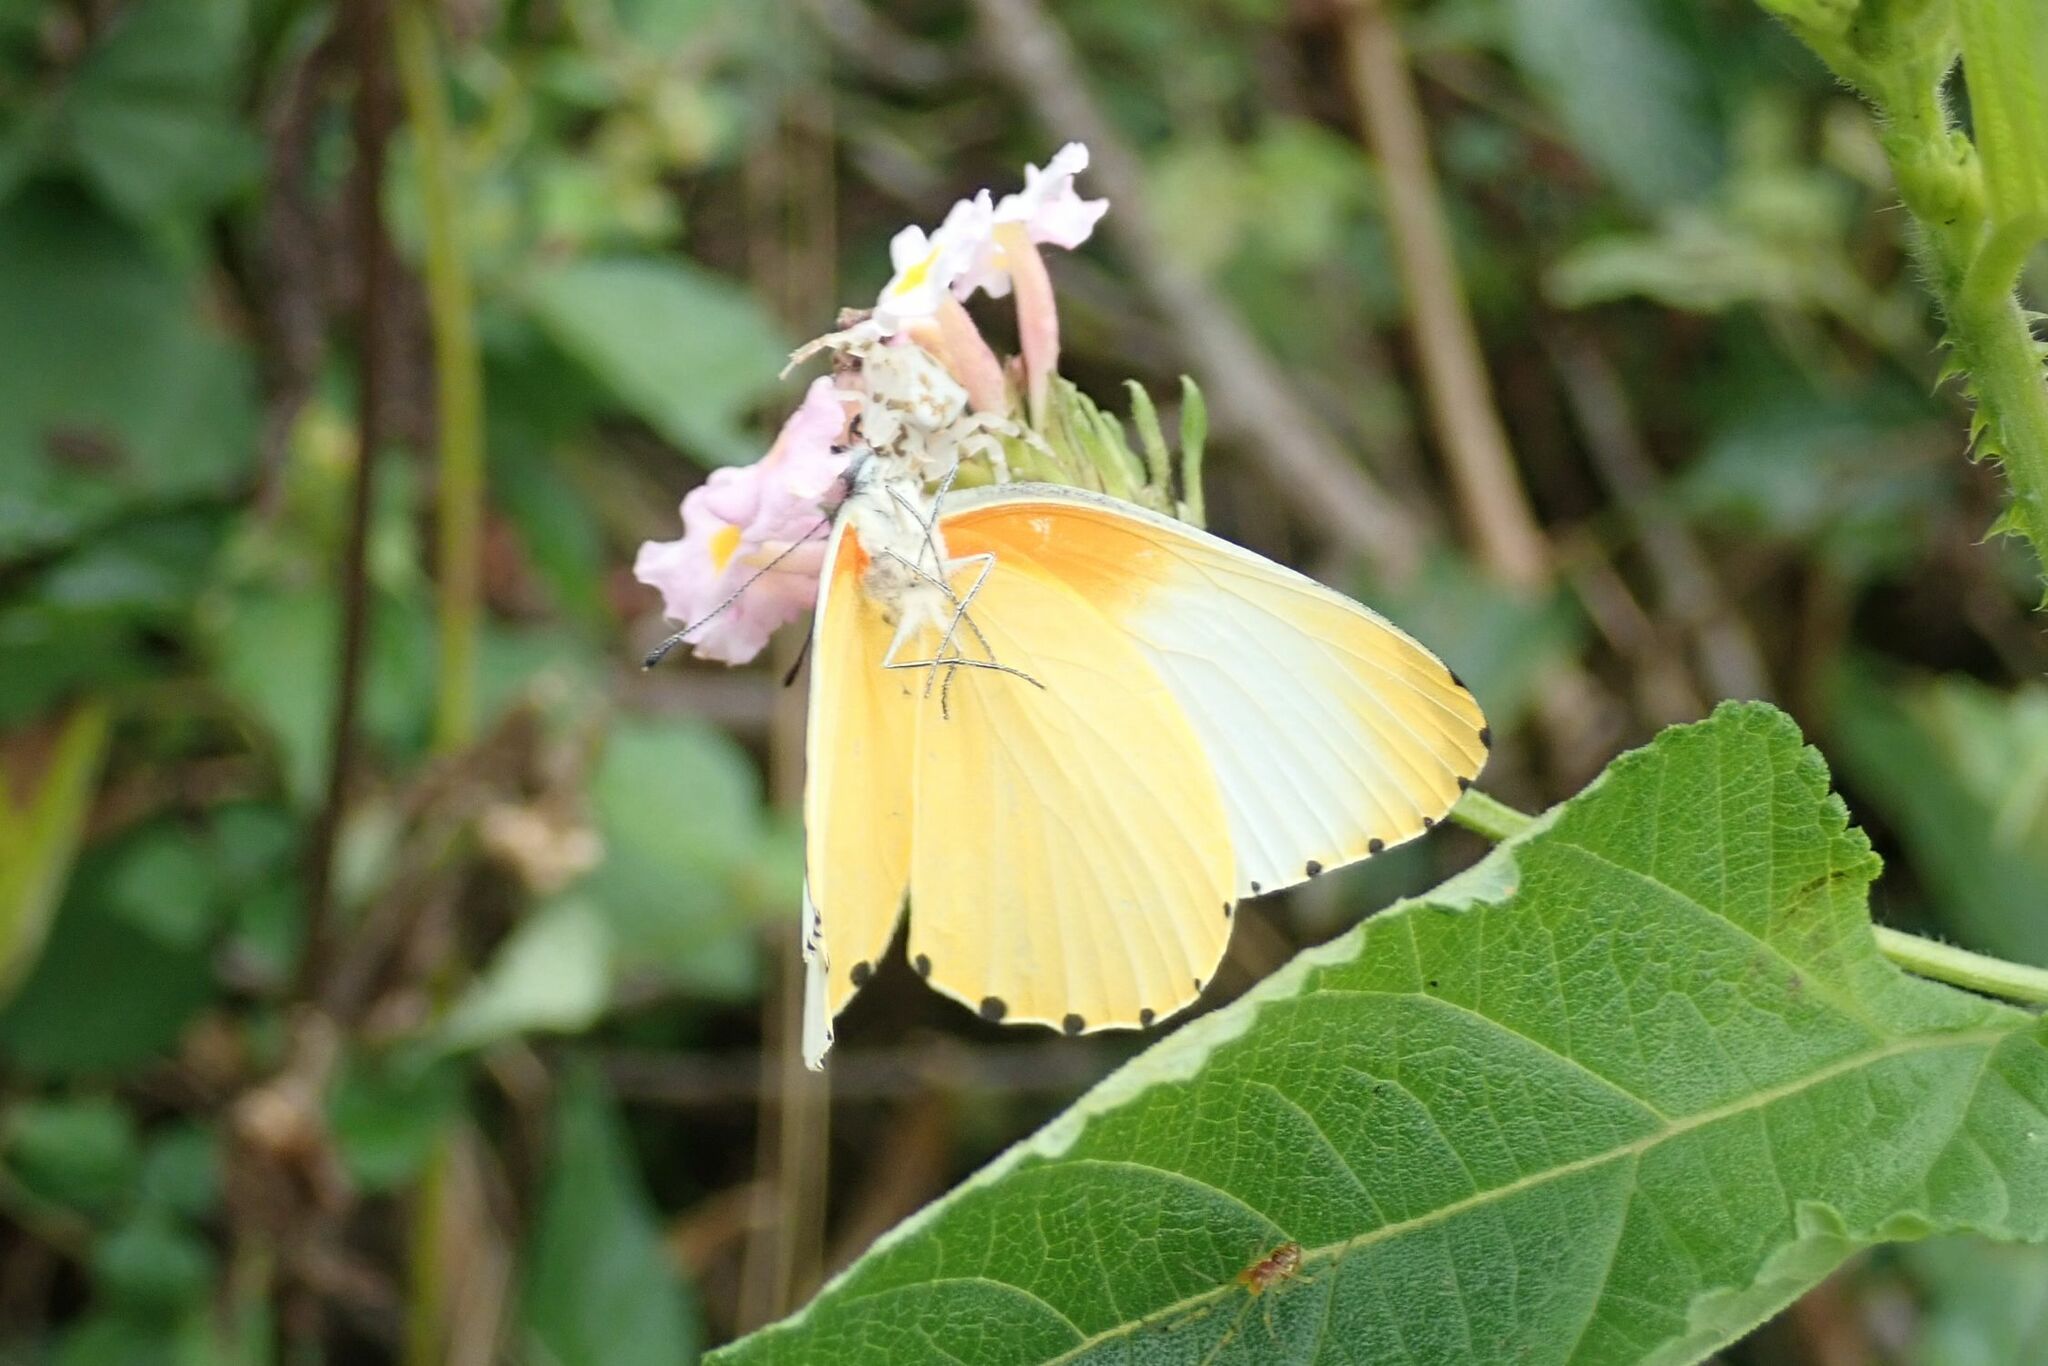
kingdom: Animalia
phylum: Arthropoda
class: Insecta
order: Lepidoptera
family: Pieridae
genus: Mylothris
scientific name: Mylothris agathina
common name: Eastern dotted border
